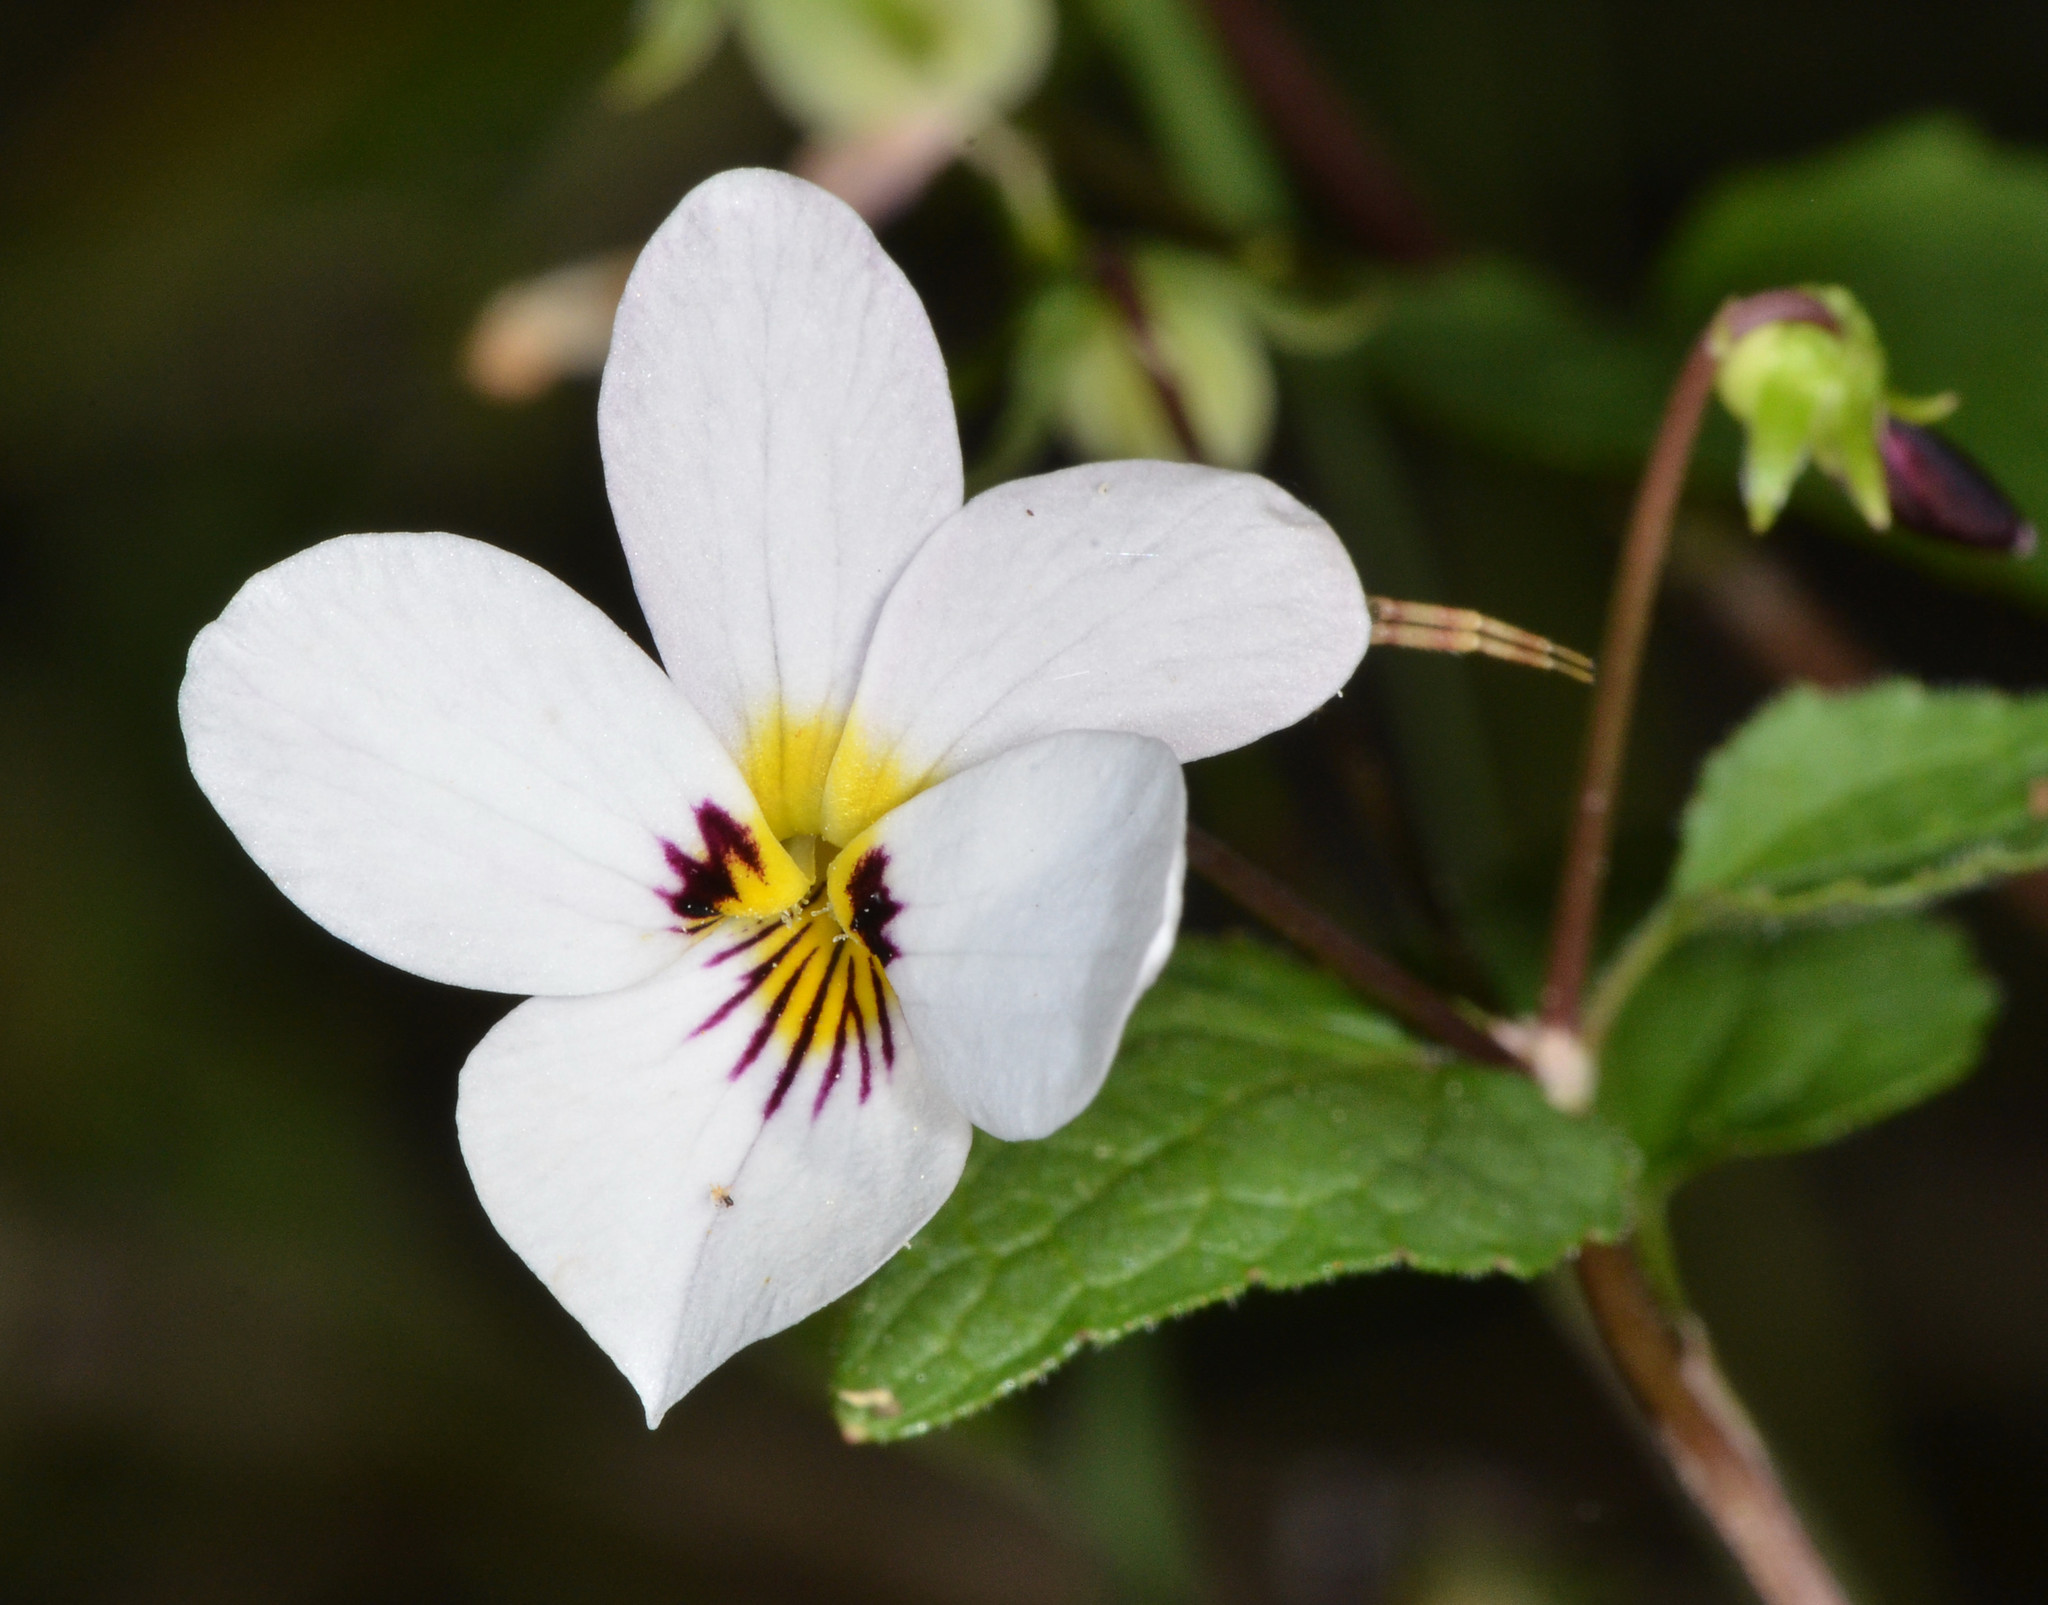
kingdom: Plantae
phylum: Tracheophyta
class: Magnoliopsida
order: Malpighiales
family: Violaceae
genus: Viola
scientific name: Viola ocellata
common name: Western heart's ease
